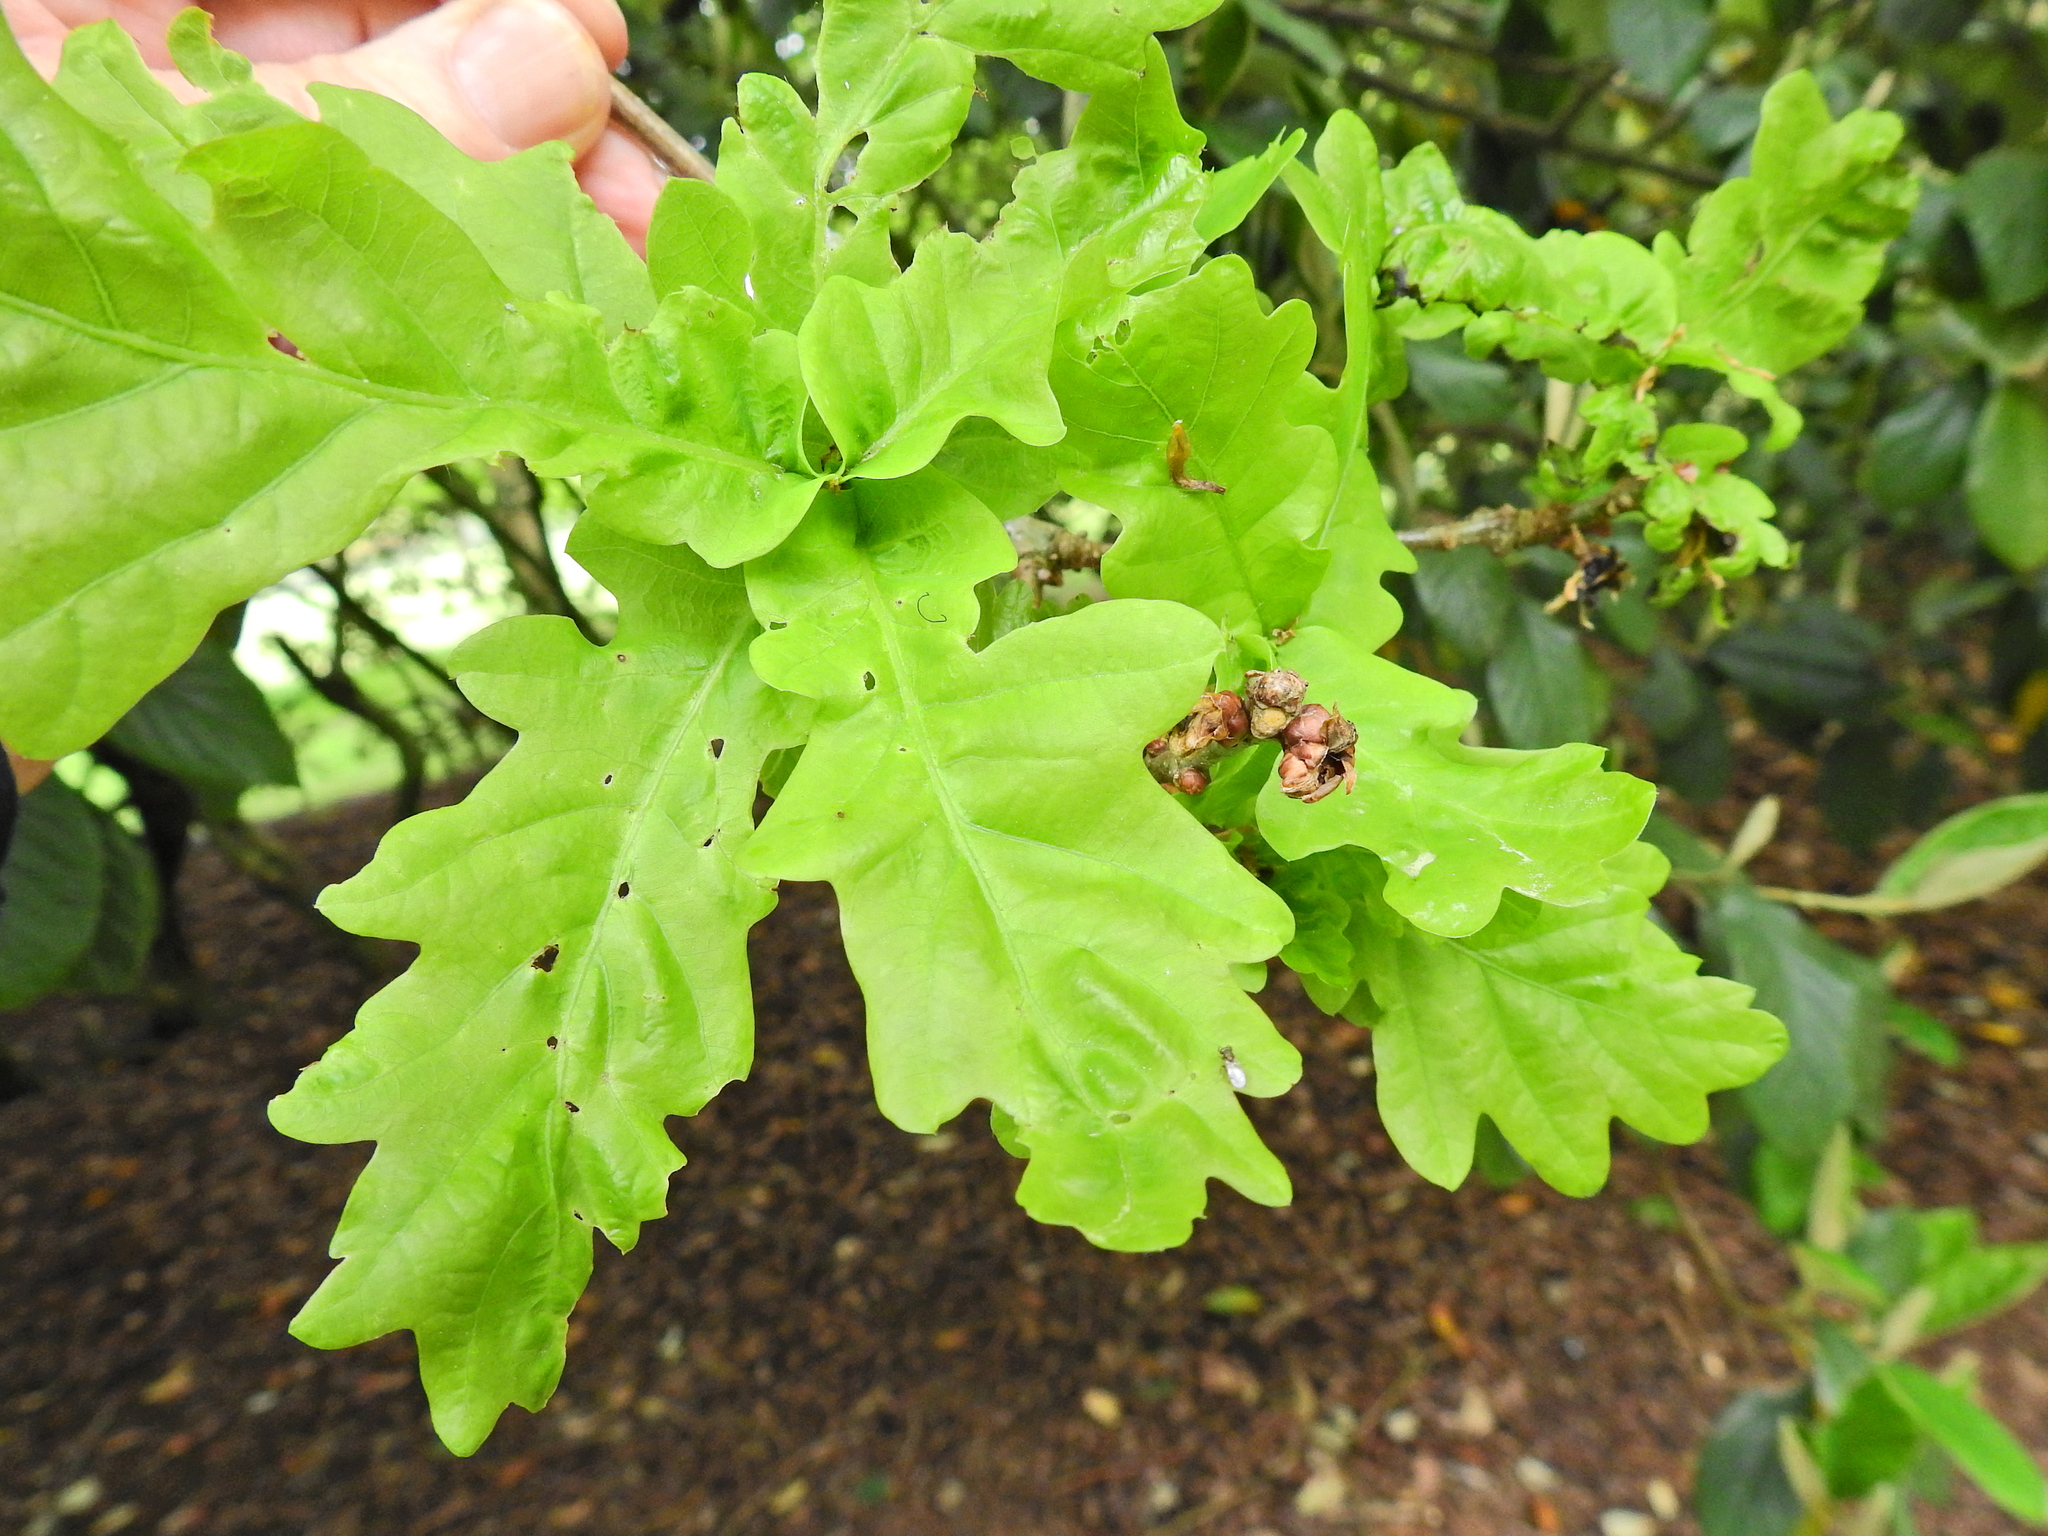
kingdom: Plantae
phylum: Tracheophyta
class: Magnoliopsida
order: Fagales
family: Fagaceae
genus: Quercus
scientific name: Quercus robur
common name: Pedunculate oak
